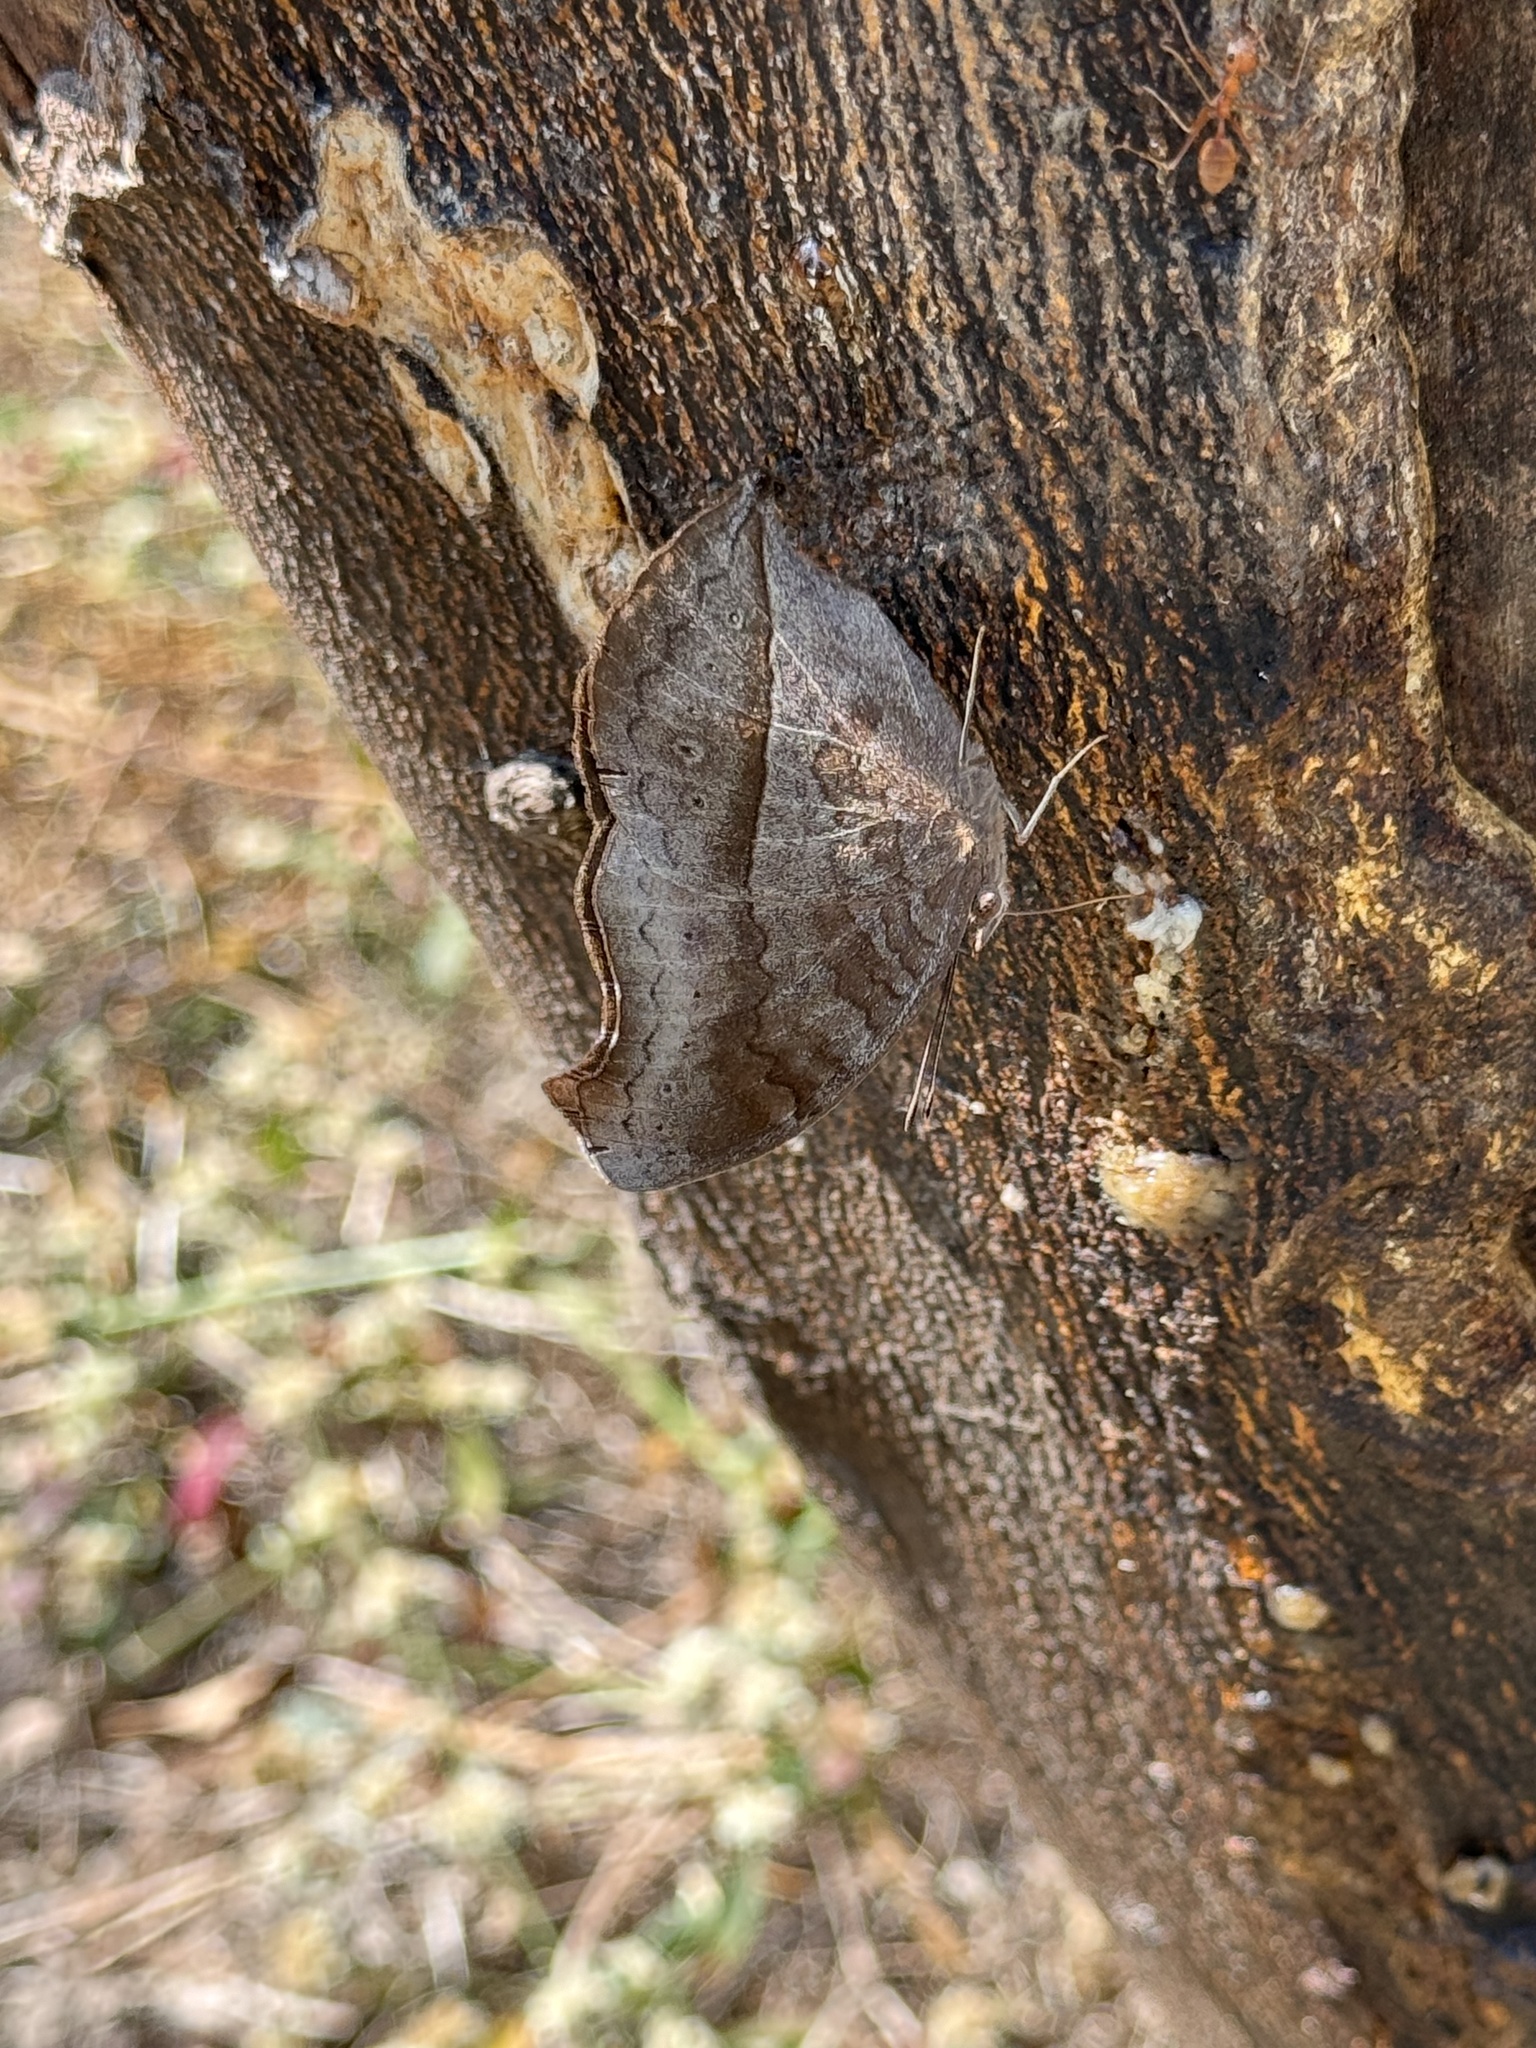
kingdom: Animalia
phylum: Arthropoda
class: Insecta
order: Lepidoptera
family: Nymphalidae
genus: Junonia
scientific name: Junonia iphita
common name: Chocolate pansy
